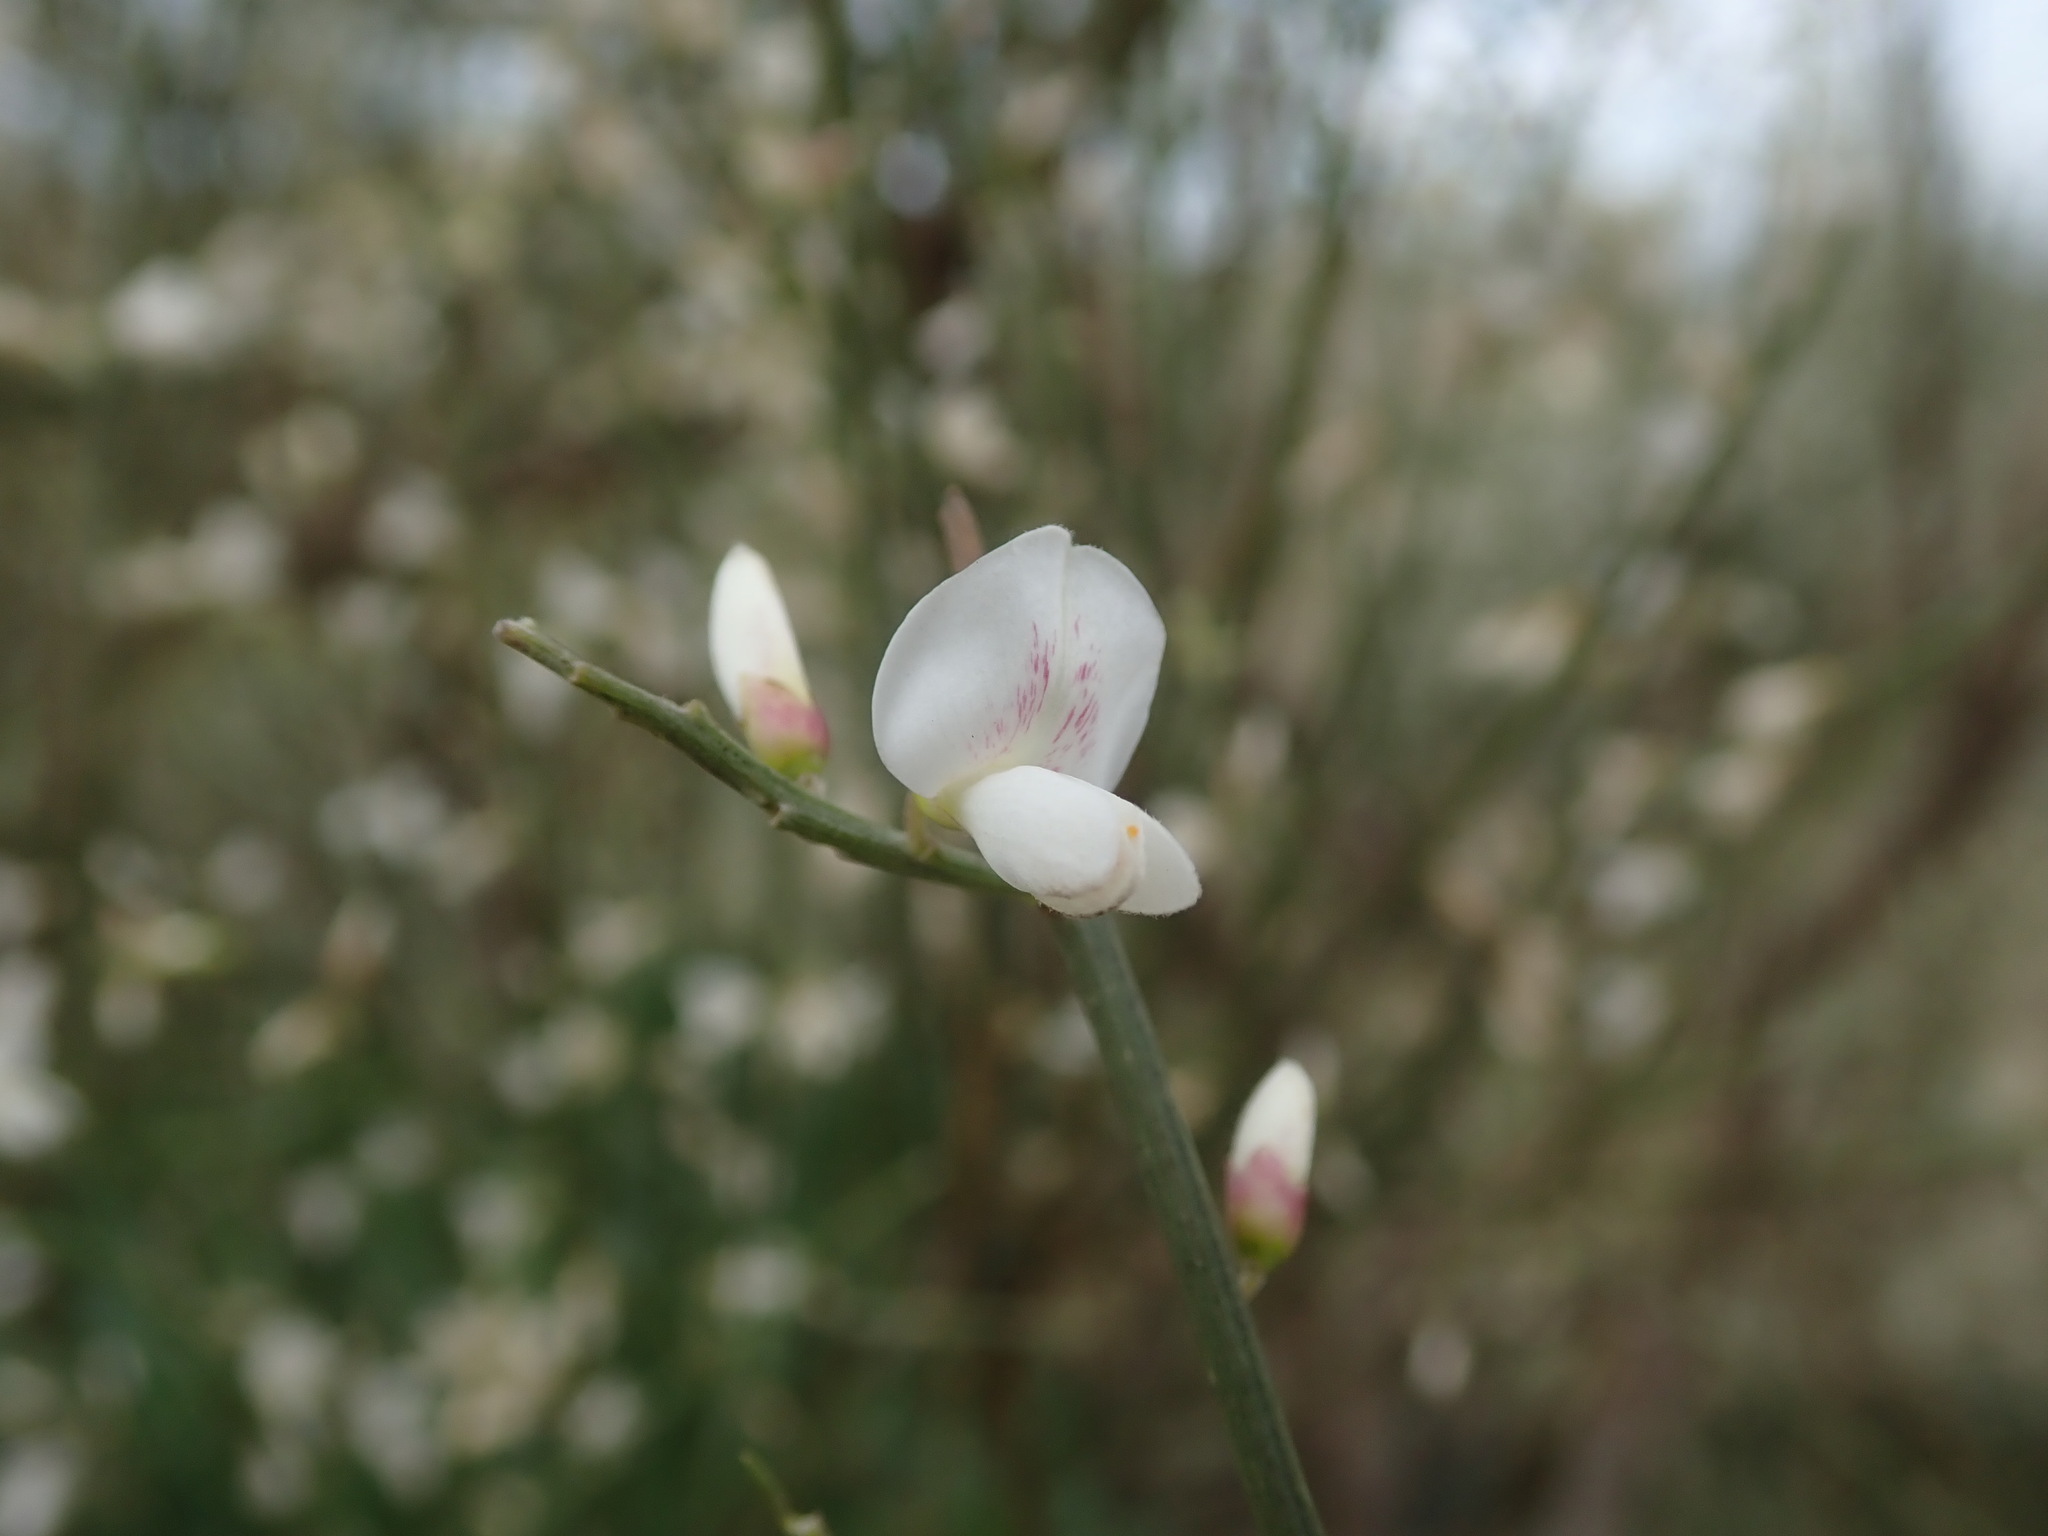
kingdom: Plantae
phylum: Tracheophyta
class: Magnoliopsida
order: Fabales
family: Fabaceae
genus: Retama
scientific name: Retama rhodorhizoides
